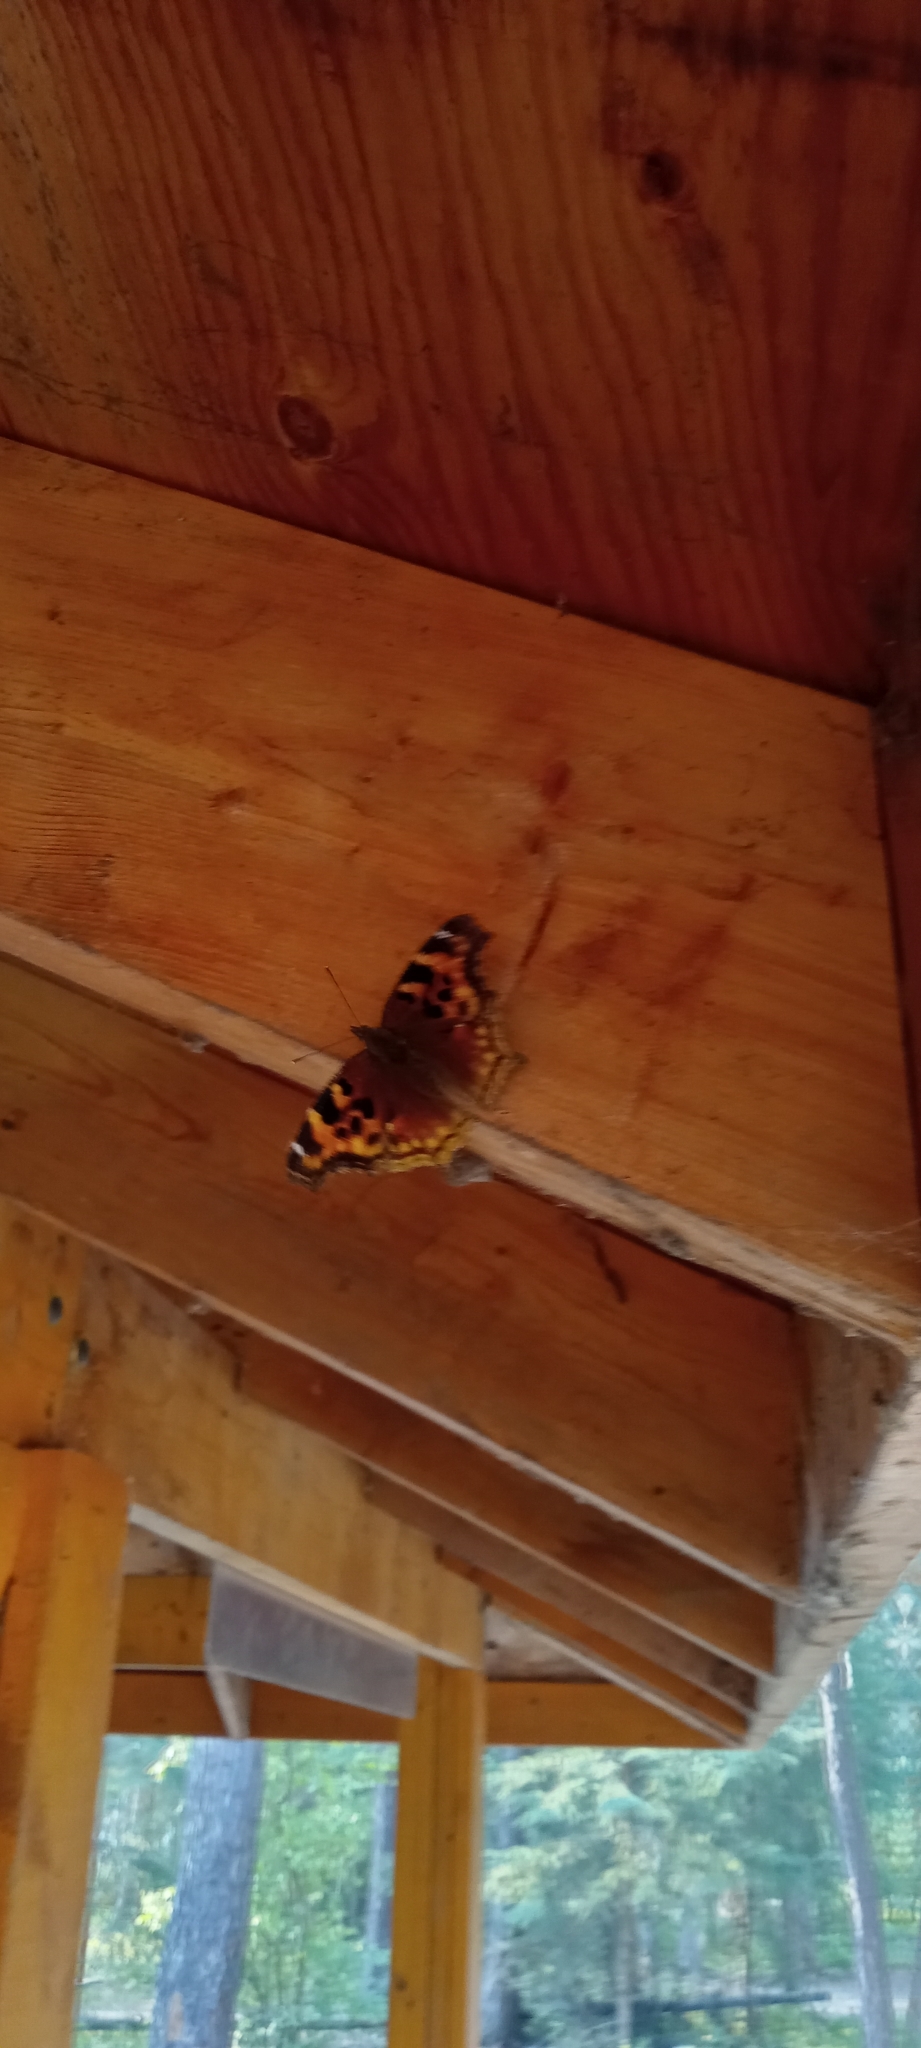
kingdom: Animalia
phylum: Arthropoda
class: Insecta
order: Lepidoptera
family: Nymphalidae
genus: Polygonia
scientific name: Polygonia vaualbum
